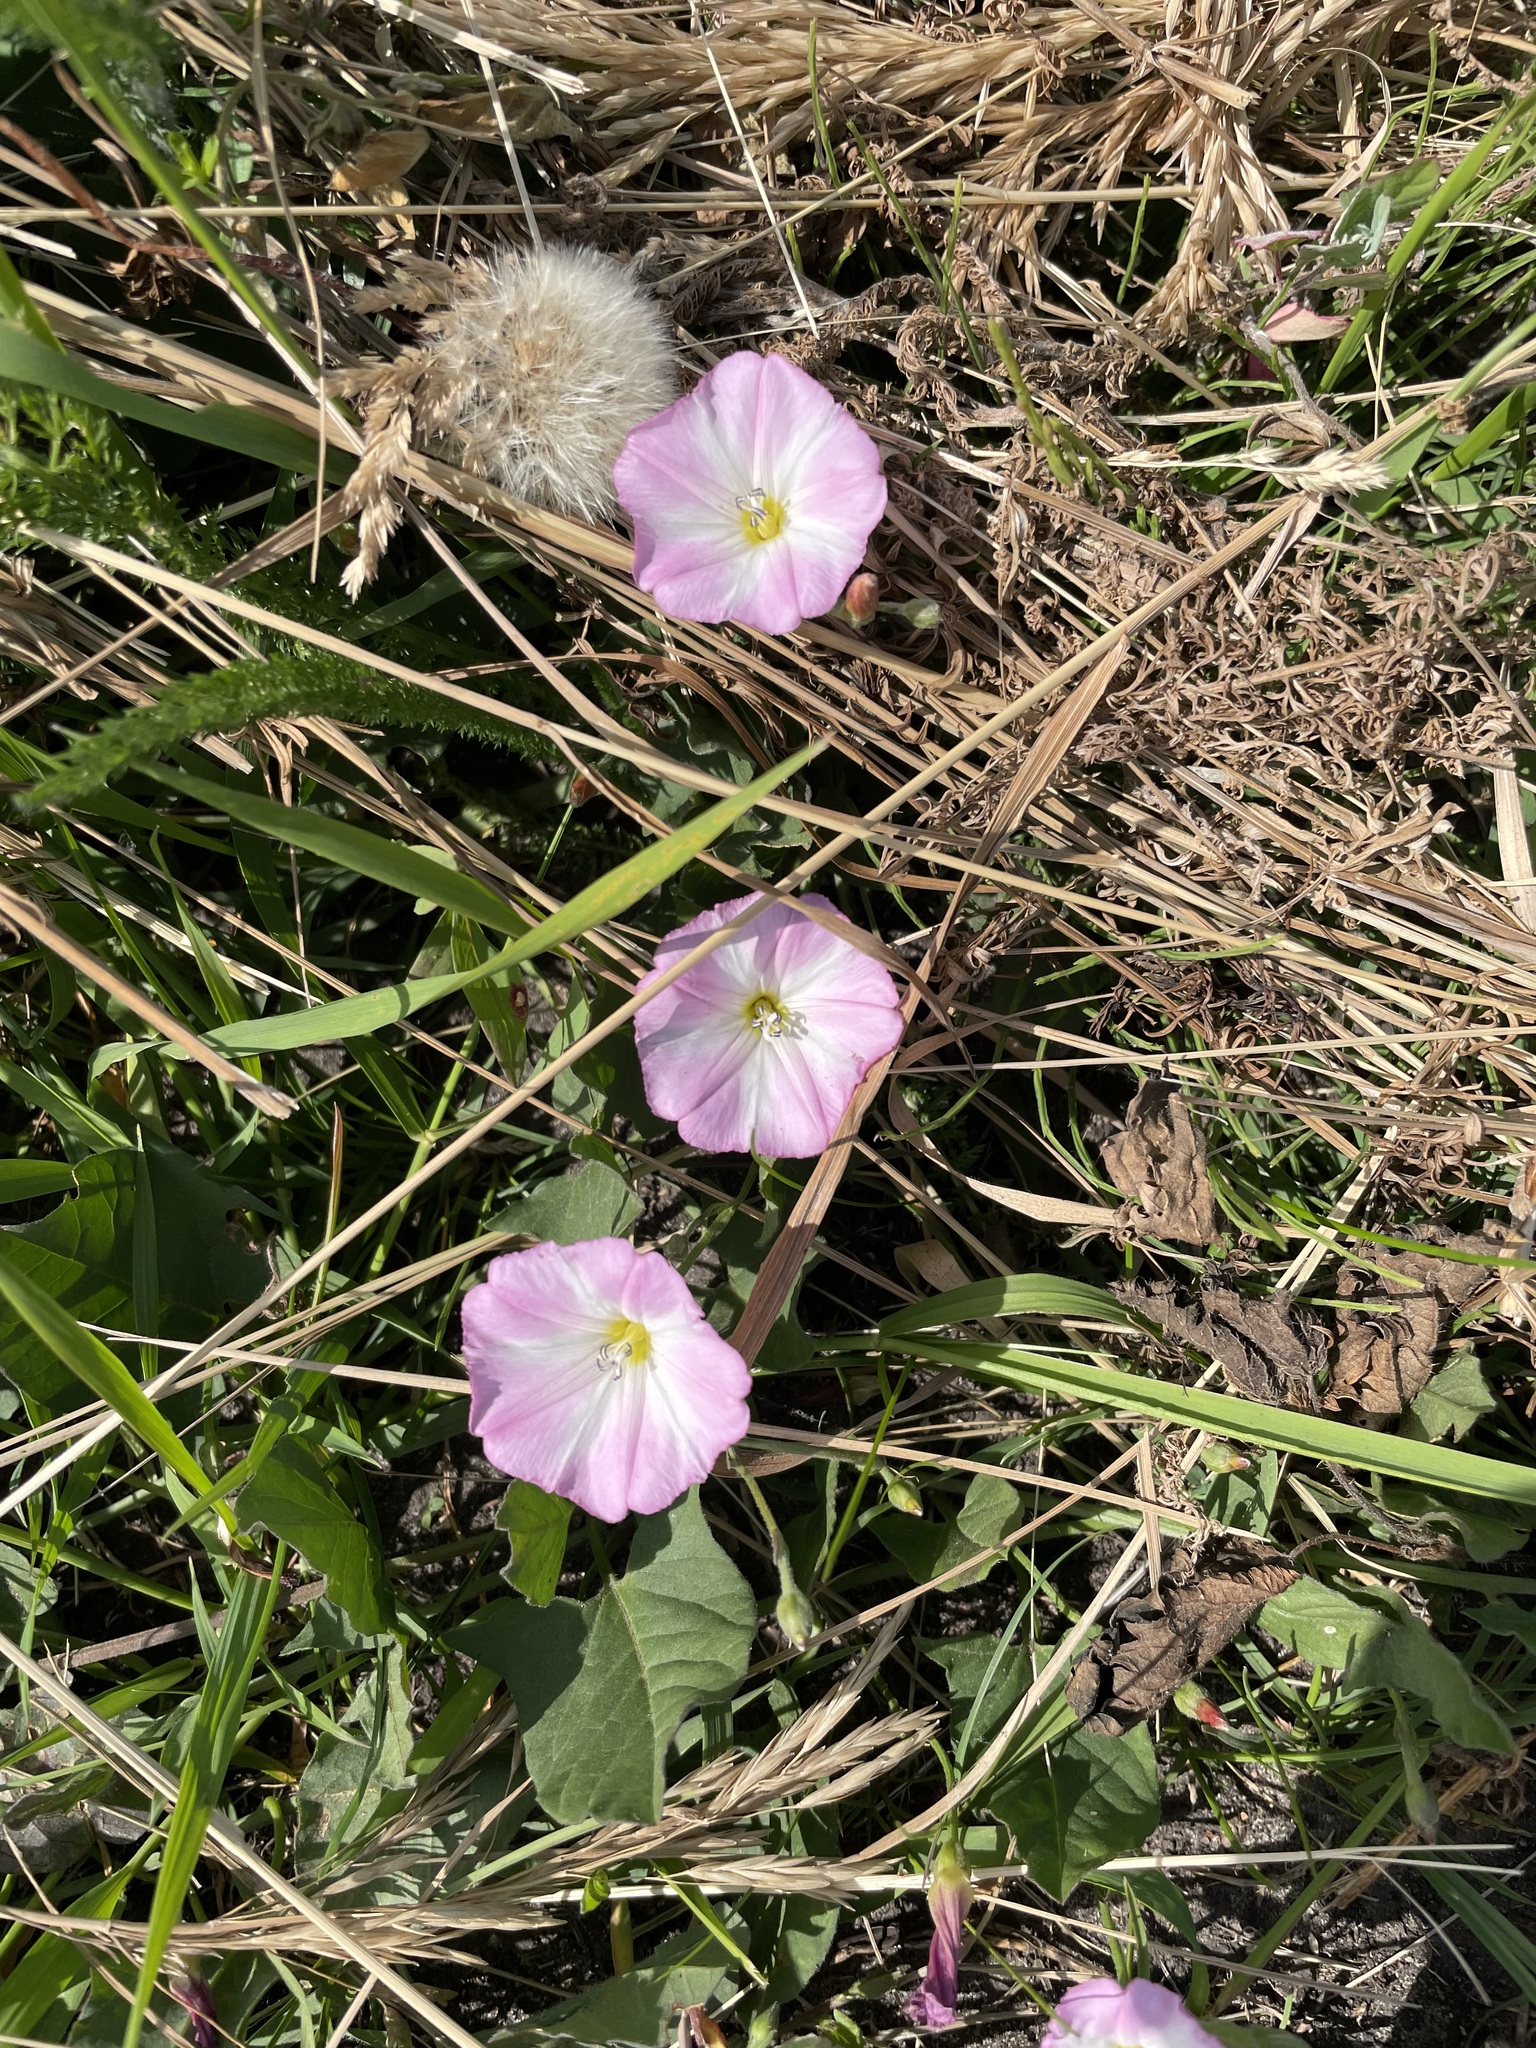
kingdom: Plantae
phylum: Tracheophyta
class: Magnoliopsida
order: Solanales
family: Convolvulaceae
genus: Convolvulus
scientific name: Convolvulus arvensis
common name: Field bindweed
